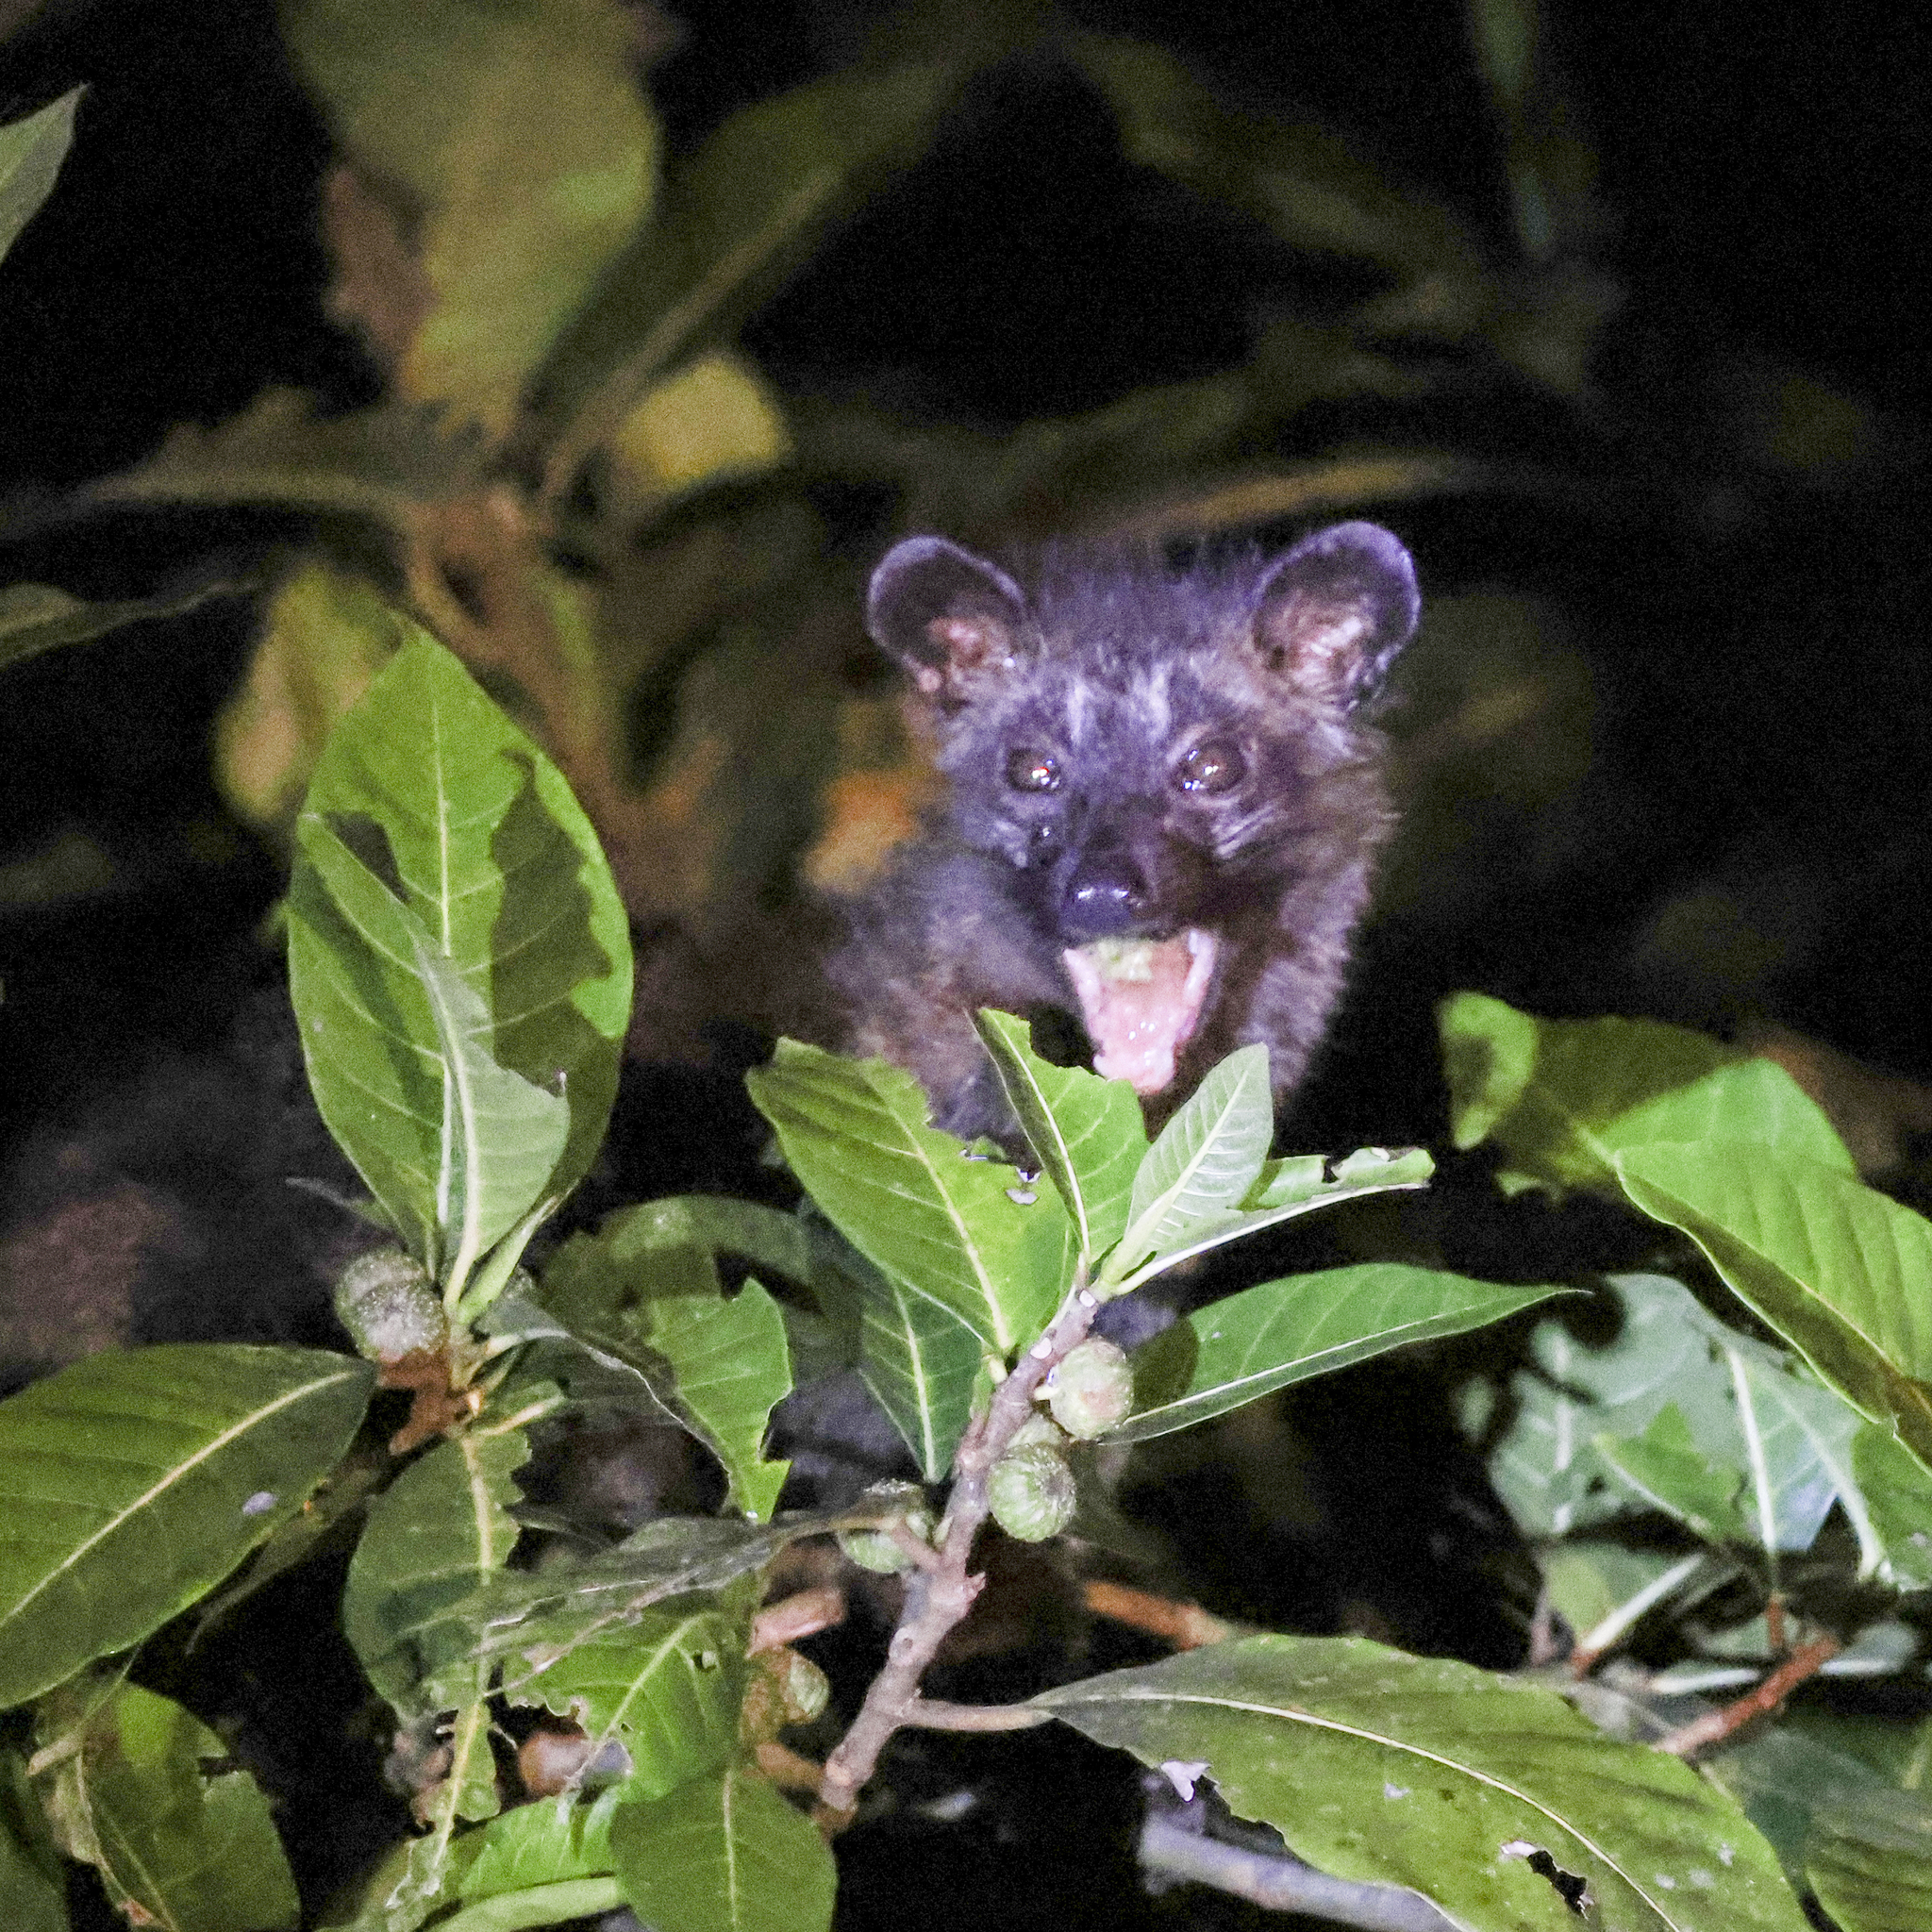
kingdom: Animalia
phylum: Chordata
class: Mammalia
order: Carnivora
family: Viverridae
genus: Paradoxurus
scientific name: Paradoxurus hermaphroditus
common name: Common palm civet
